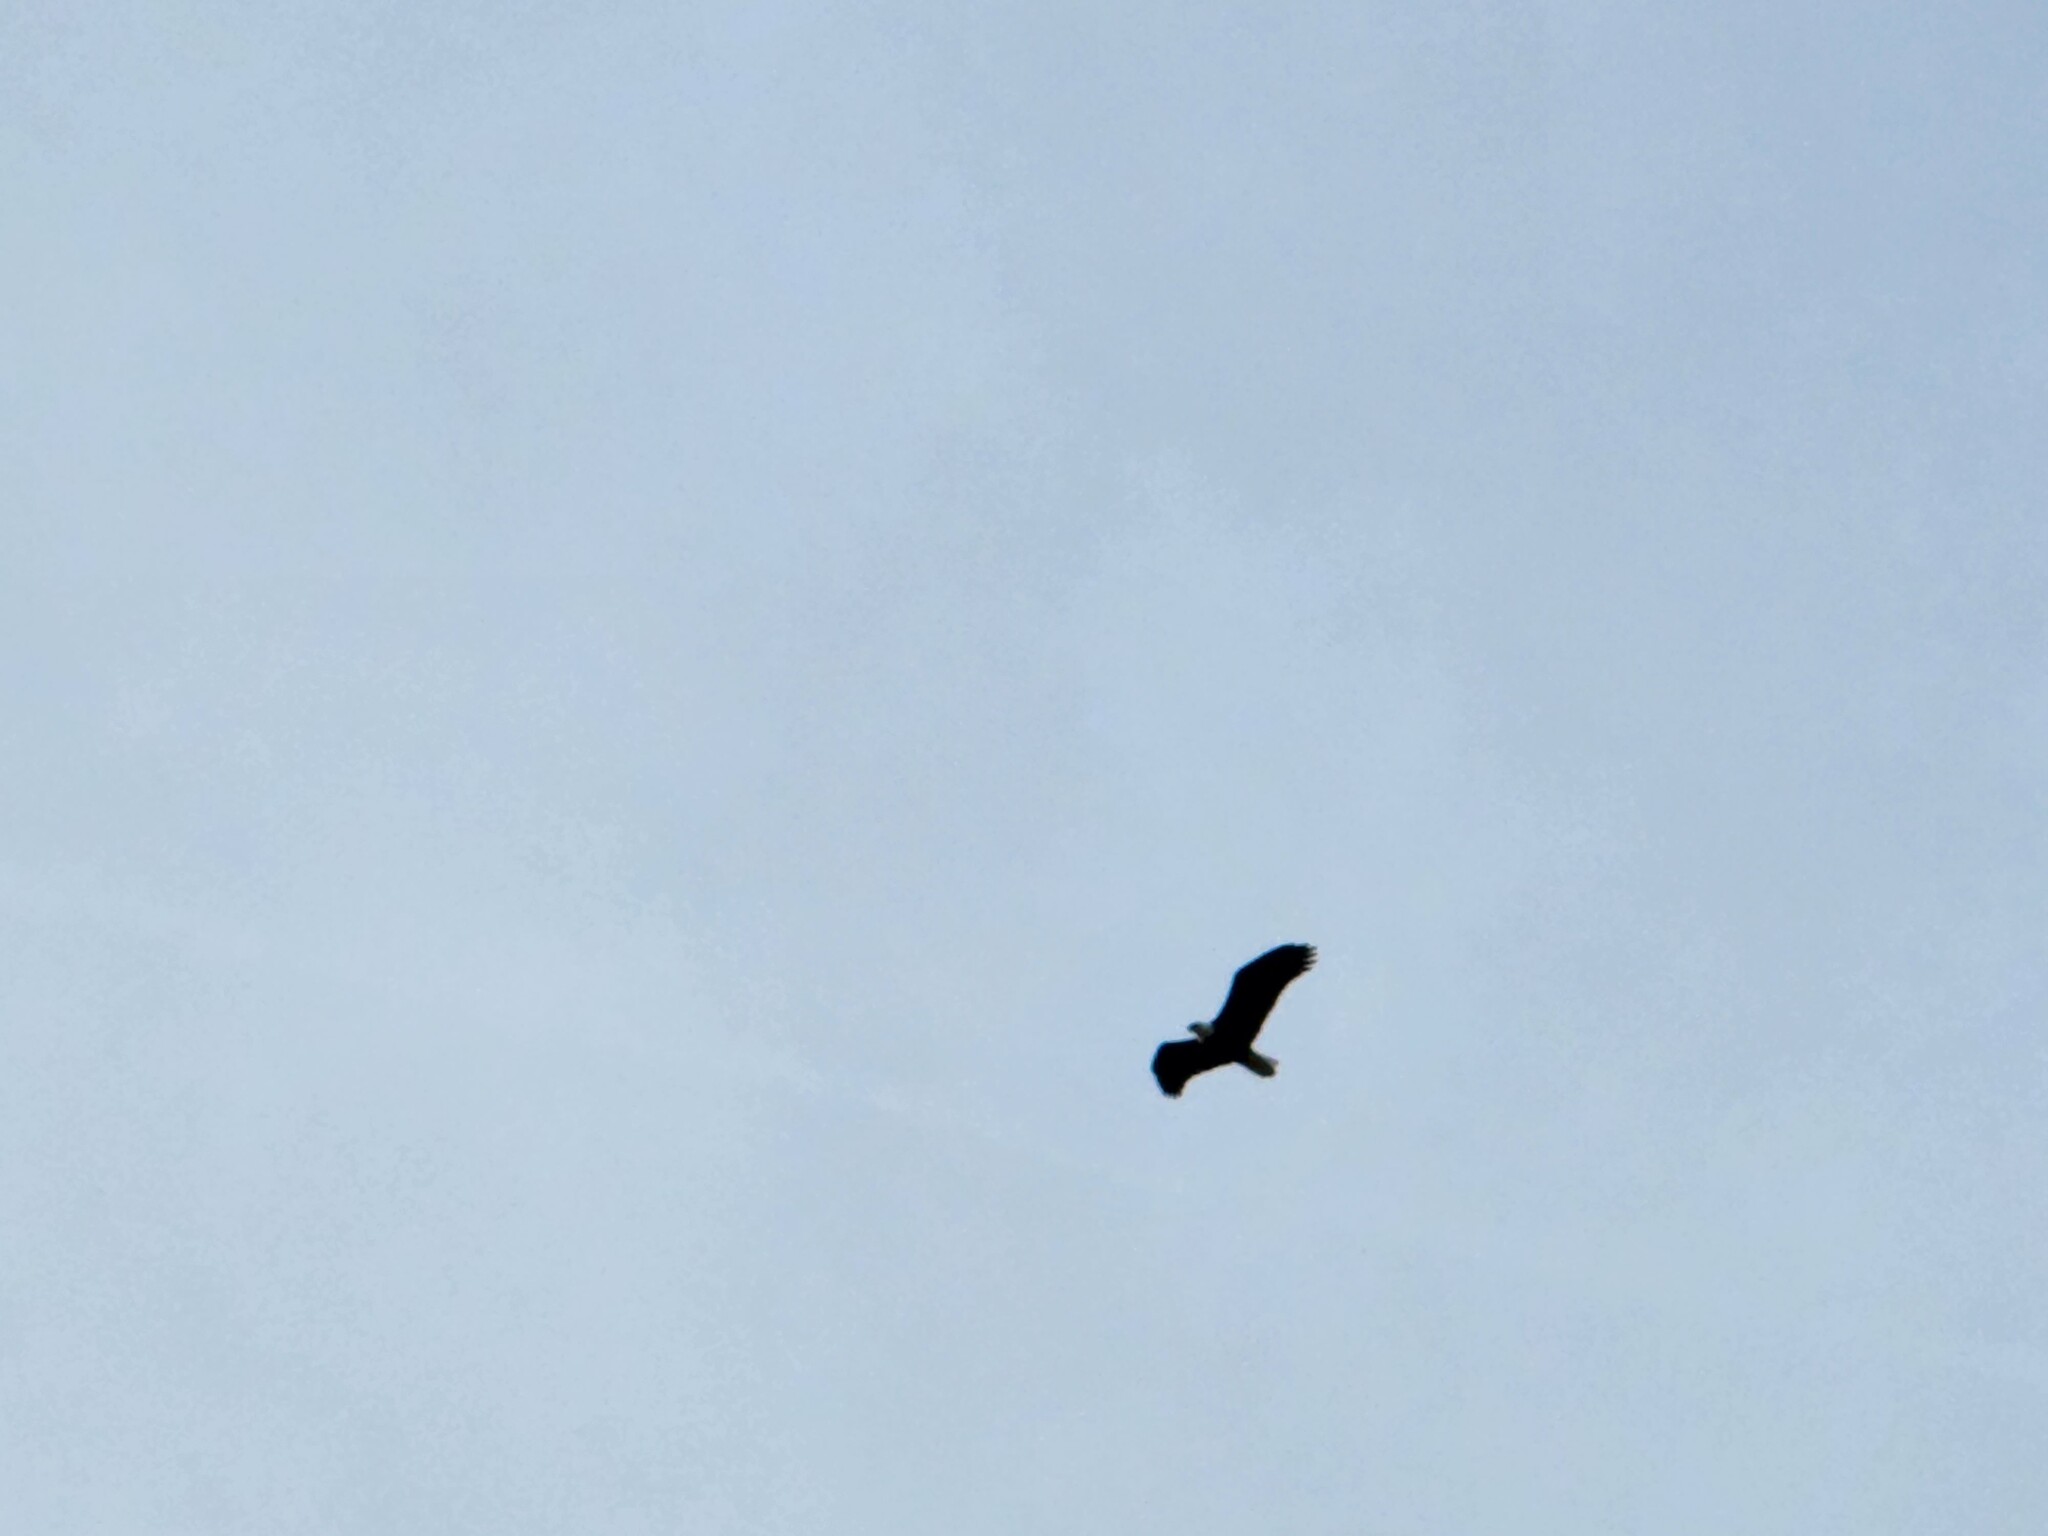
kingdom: Animalia
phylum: Chordata
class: Aves
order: Accipitriformes
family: Accipitridae
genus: Haliaeetus
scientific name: Haliaeetus leucocephalus
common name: Bald eagle
